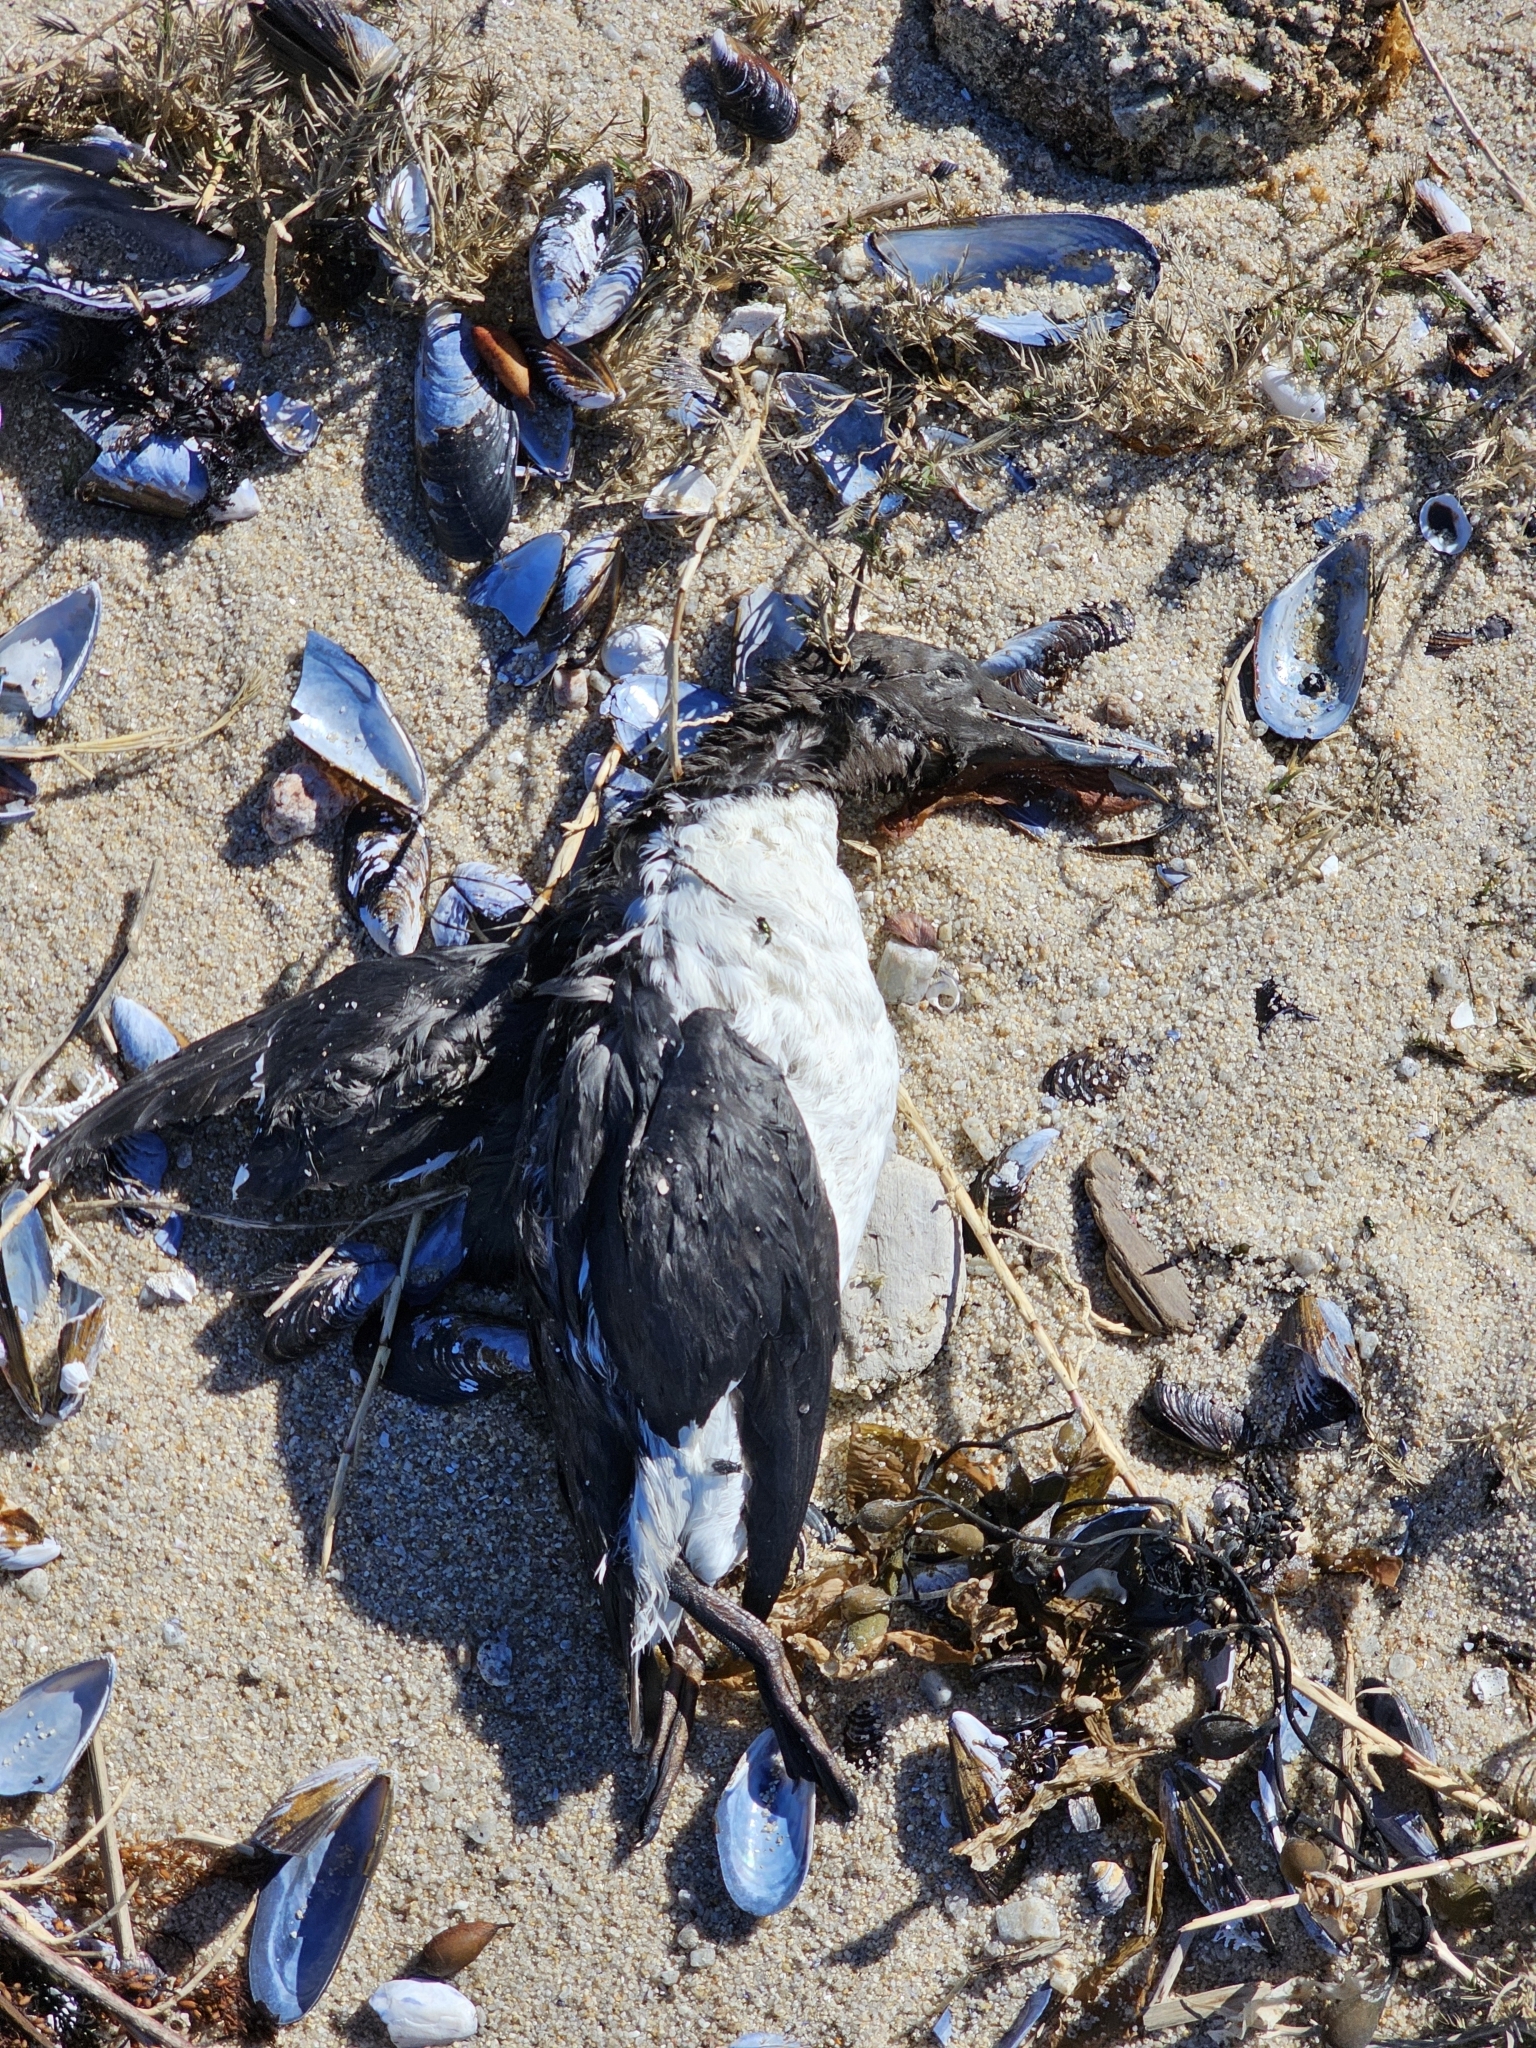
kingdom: Animalia
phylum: Chordata
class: Aves
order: Charadriiformes
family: Alcidae
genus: Uria
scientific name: Uria aalge
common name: Common murre
